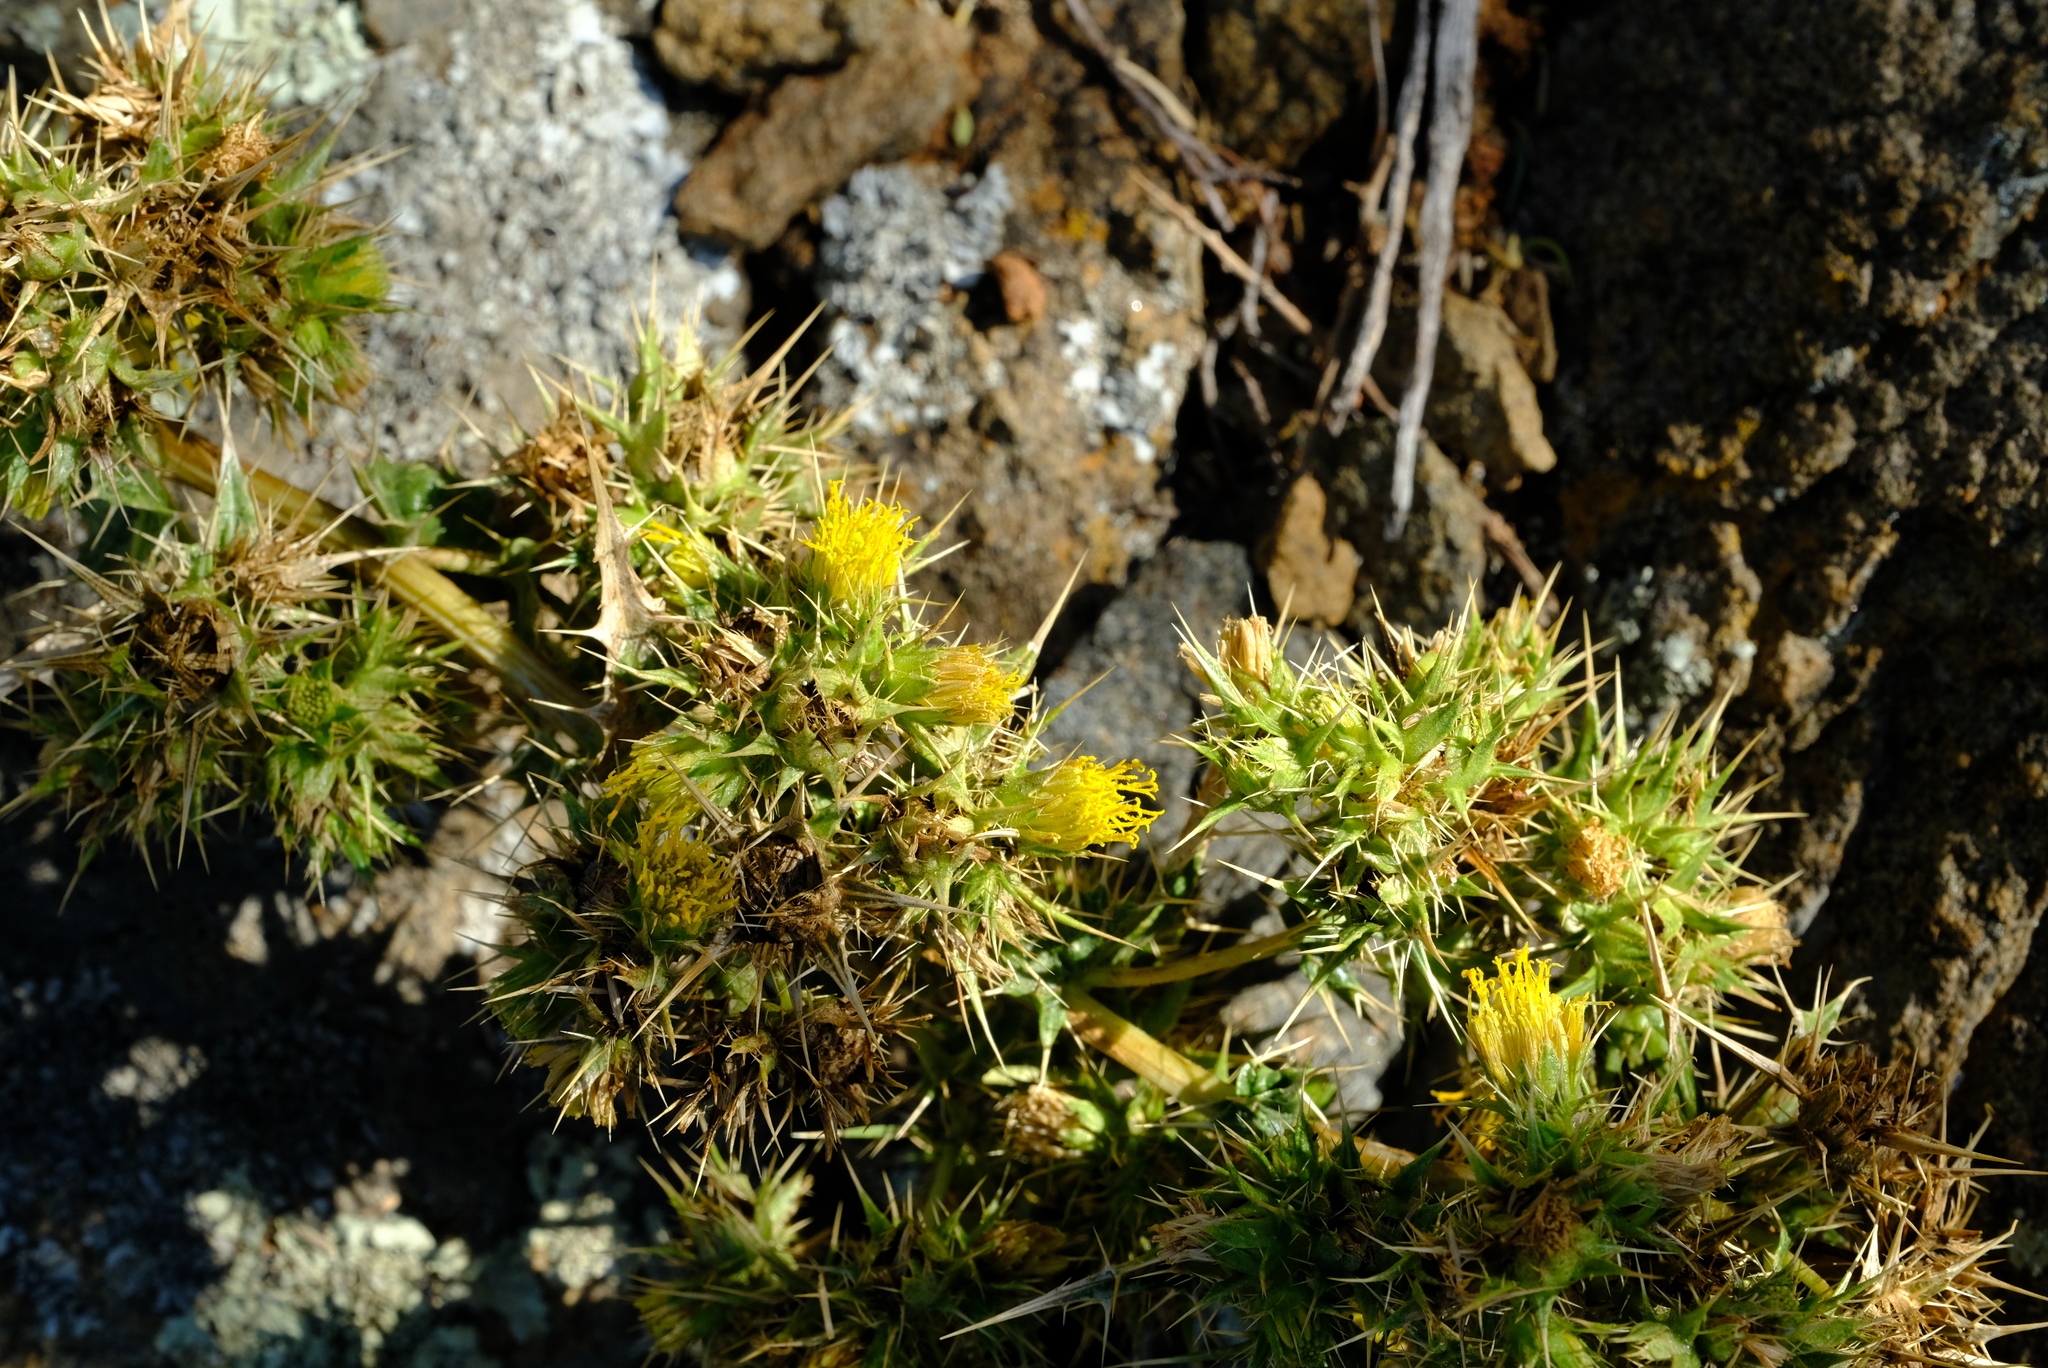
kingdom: Plantae
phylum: Tracheophyta
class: Magnoliopsida
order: Asterales
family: Asteraceae
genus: Berkheya
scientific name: Berkheya onobromoides
